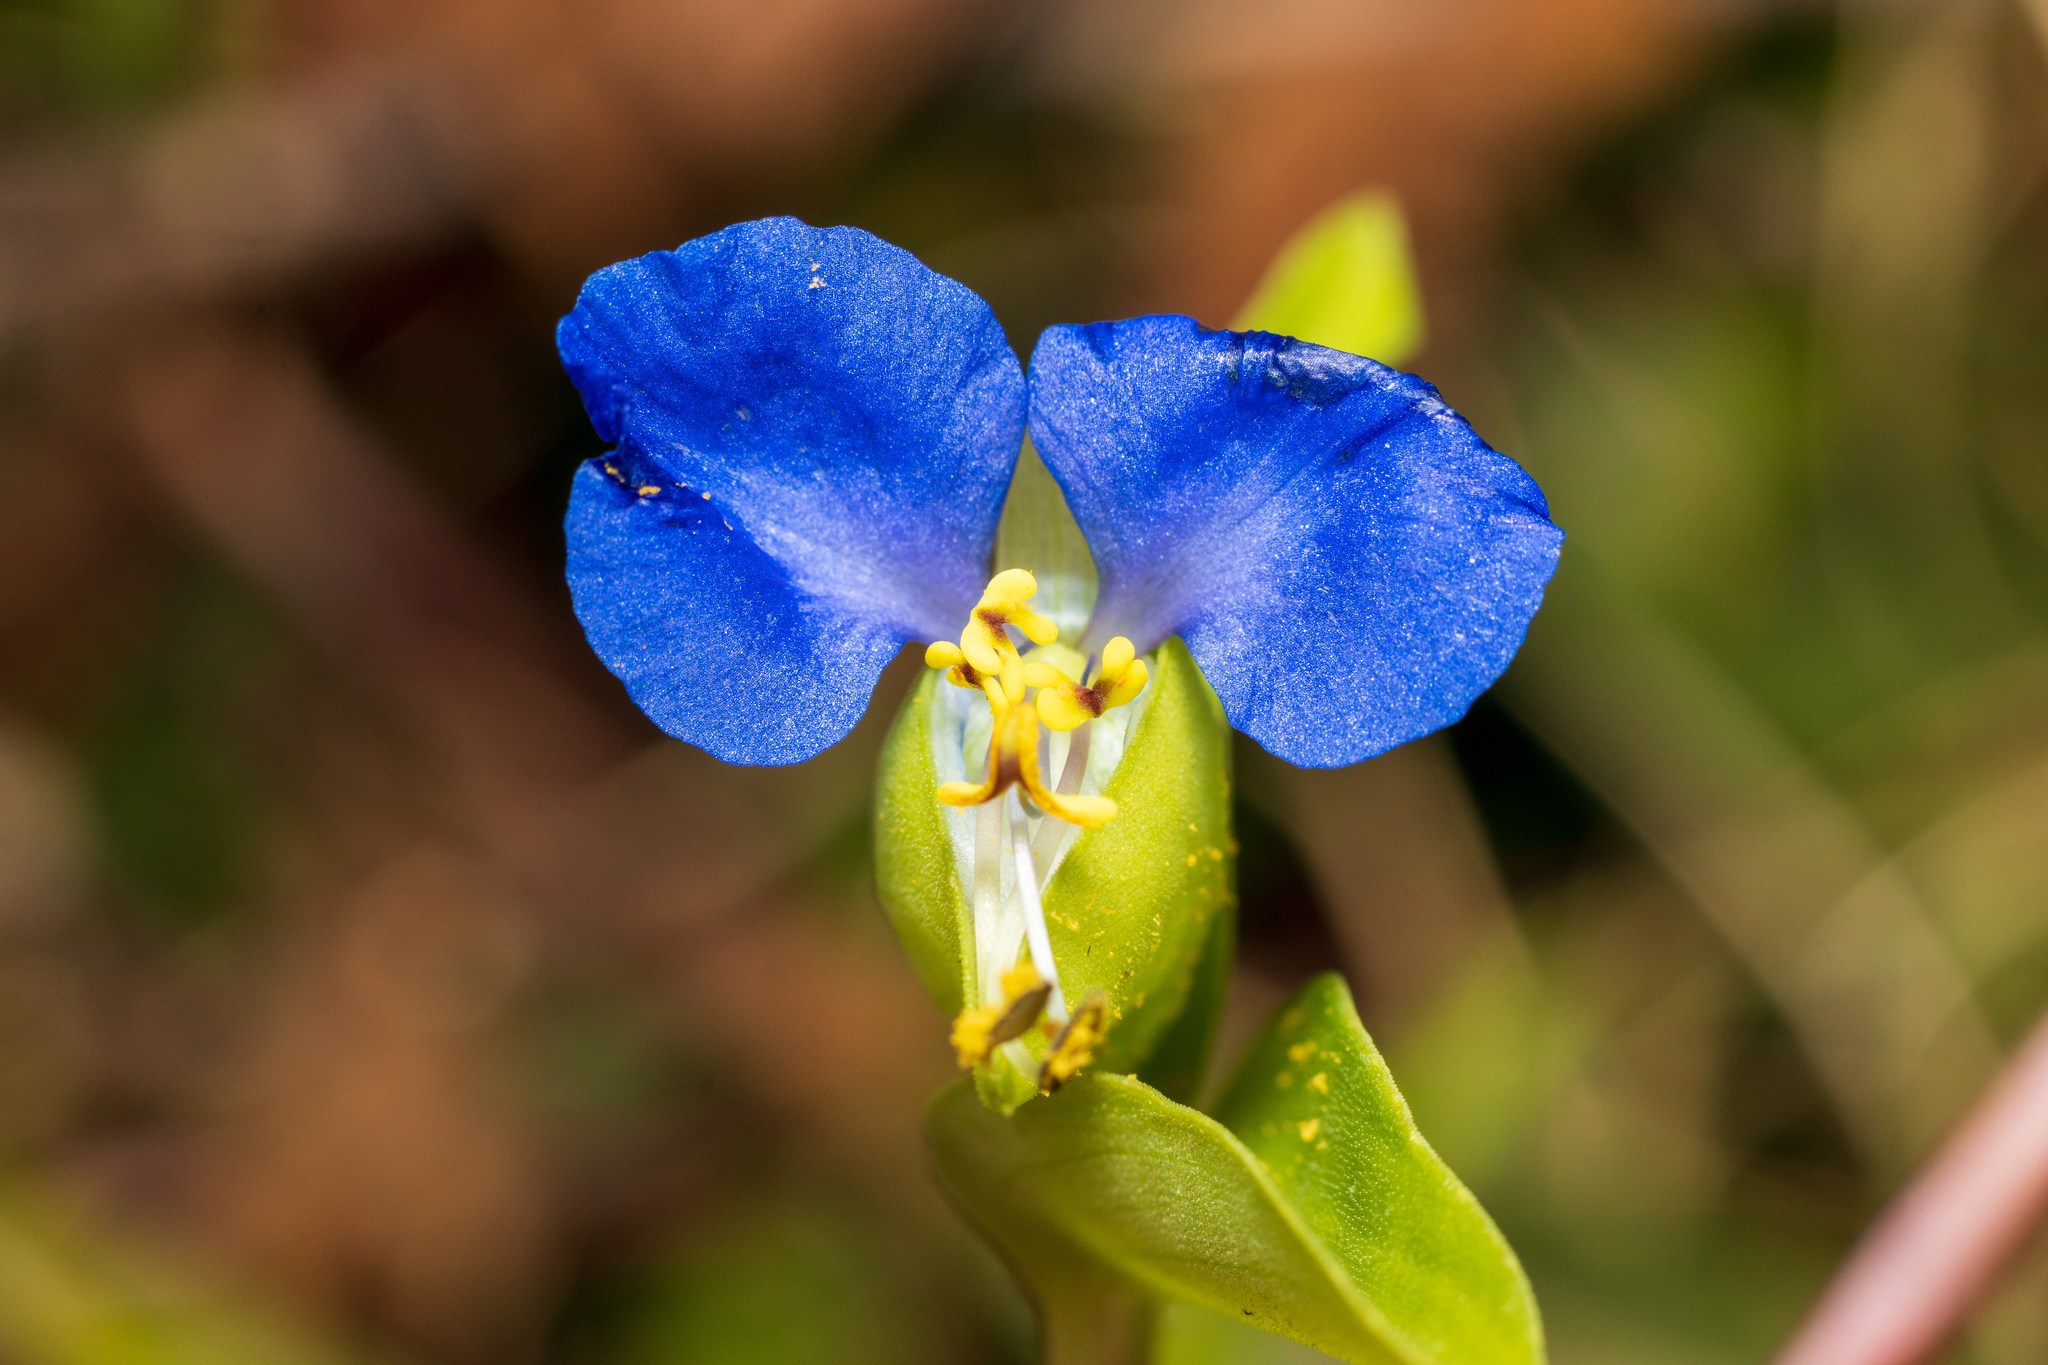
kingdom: Plantae
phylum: Tracheophyta
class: Liliopsida
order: Commelinales
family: Commelinaceae
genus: Commelina
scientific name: Commelina communis
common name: Asiatic dayflower
